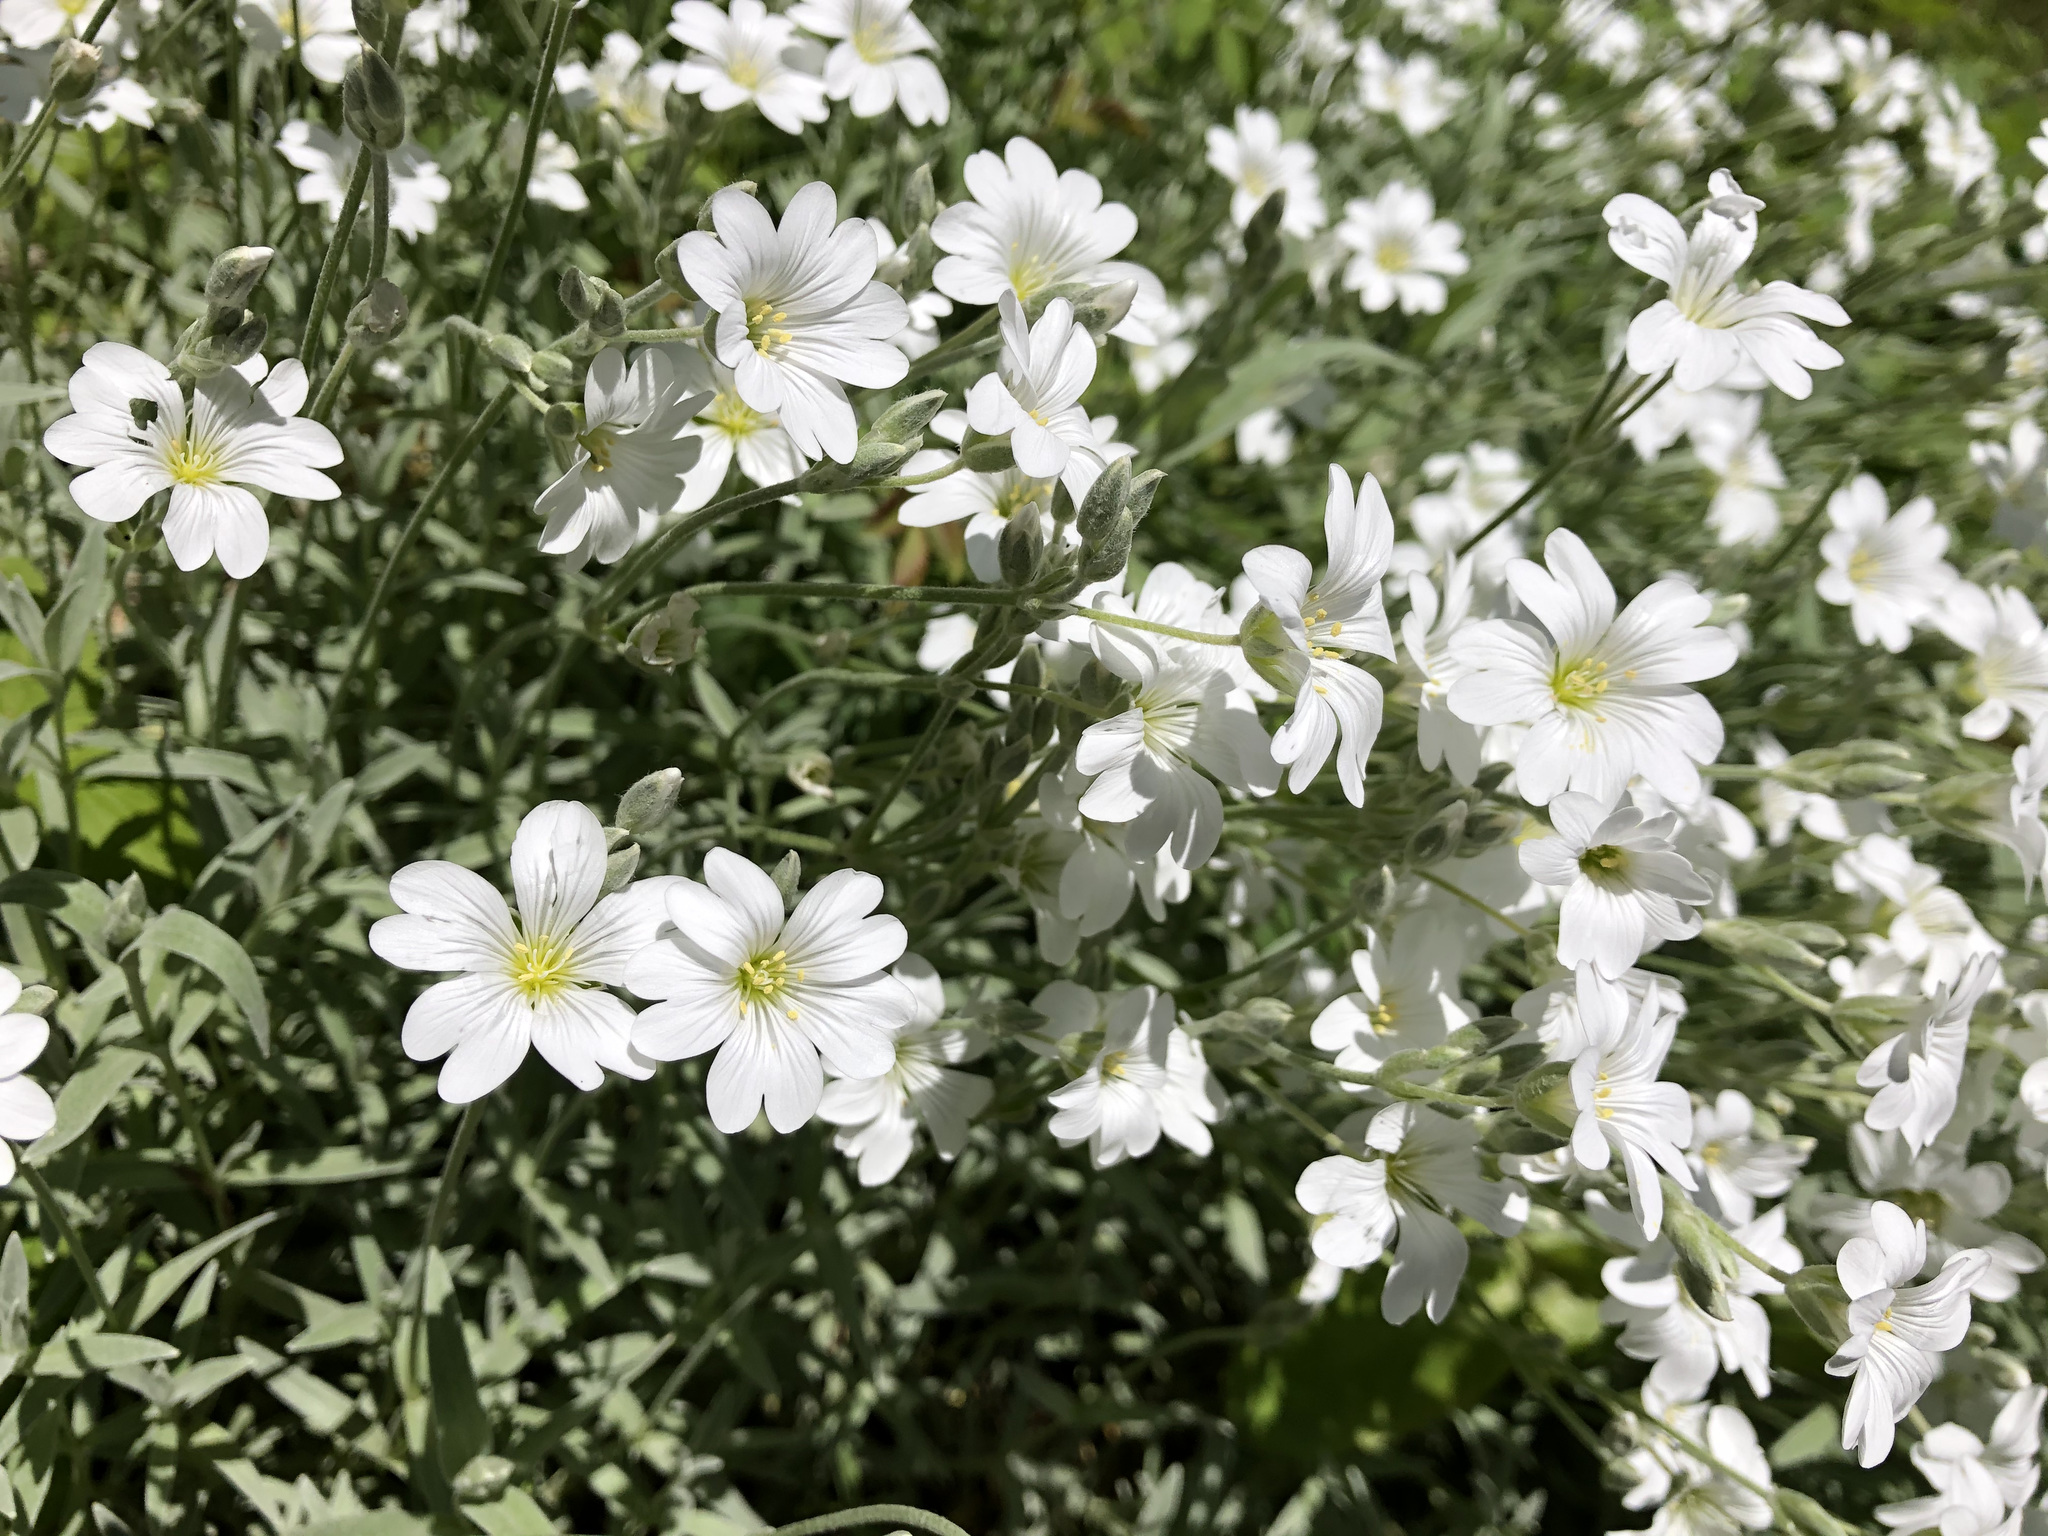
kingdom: Plantae
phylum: Tracheophyta
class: Magnoliopsida
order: Caryophyllales
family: Caryophyllaceae
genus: Cerastium
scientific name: Cerastium tomentosum
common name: Snow-in-summer
